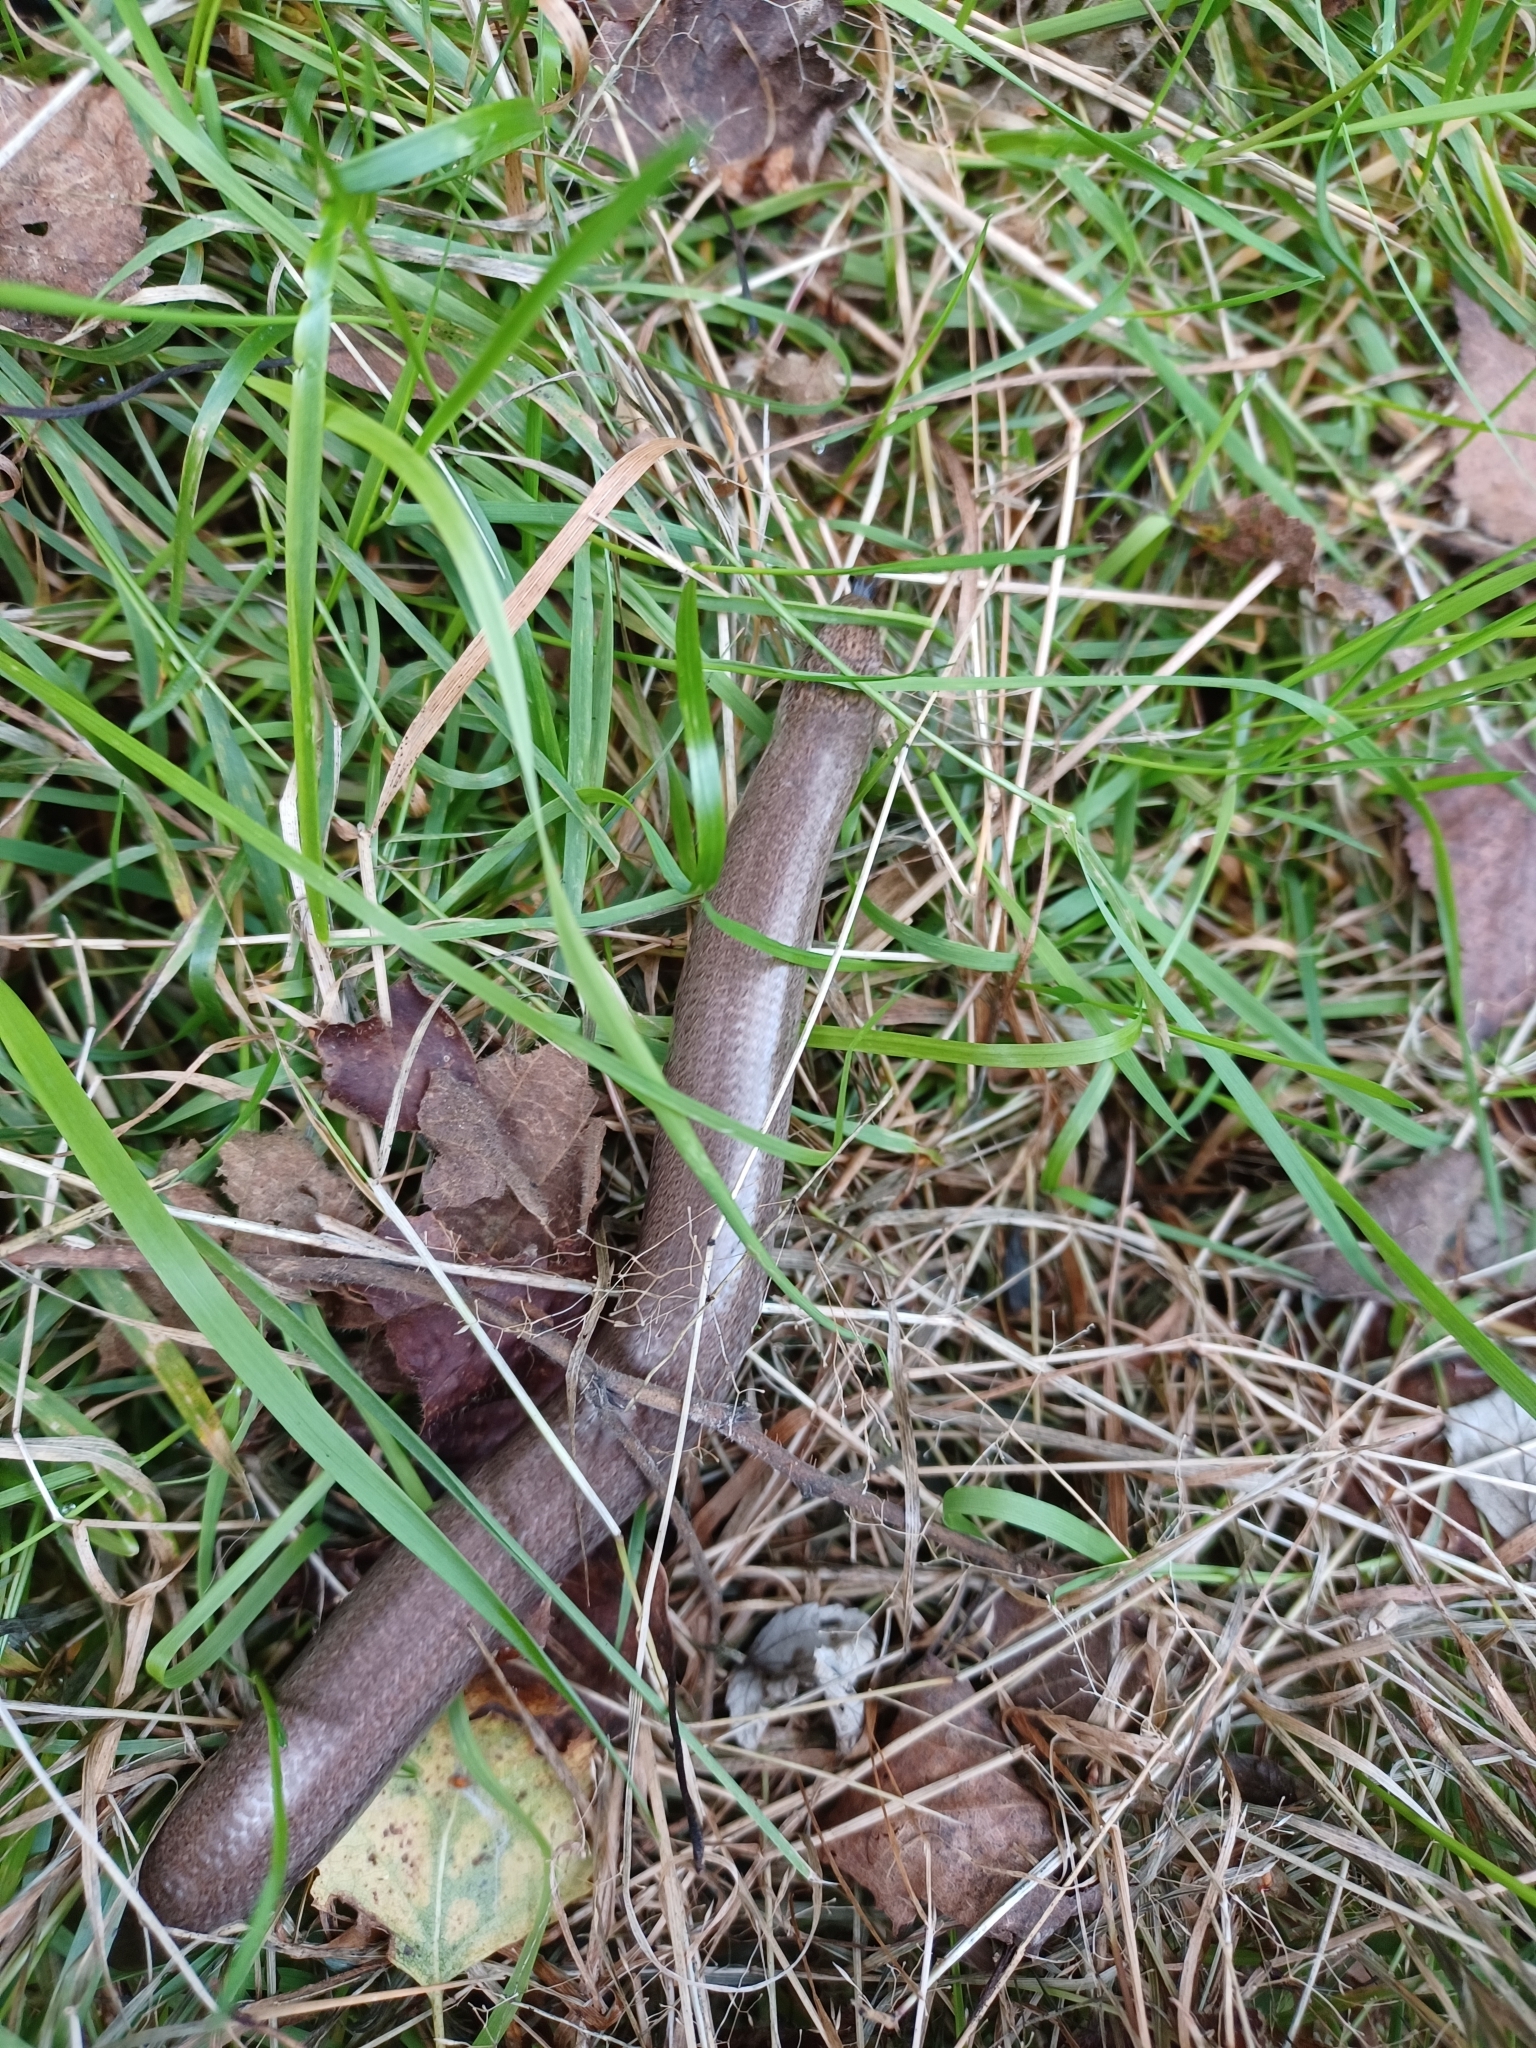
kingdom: Animalia
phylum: Chordata
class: Squamata
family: Anguidae
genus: Anguis
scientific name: Anguis fragilis
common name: Slow worm
